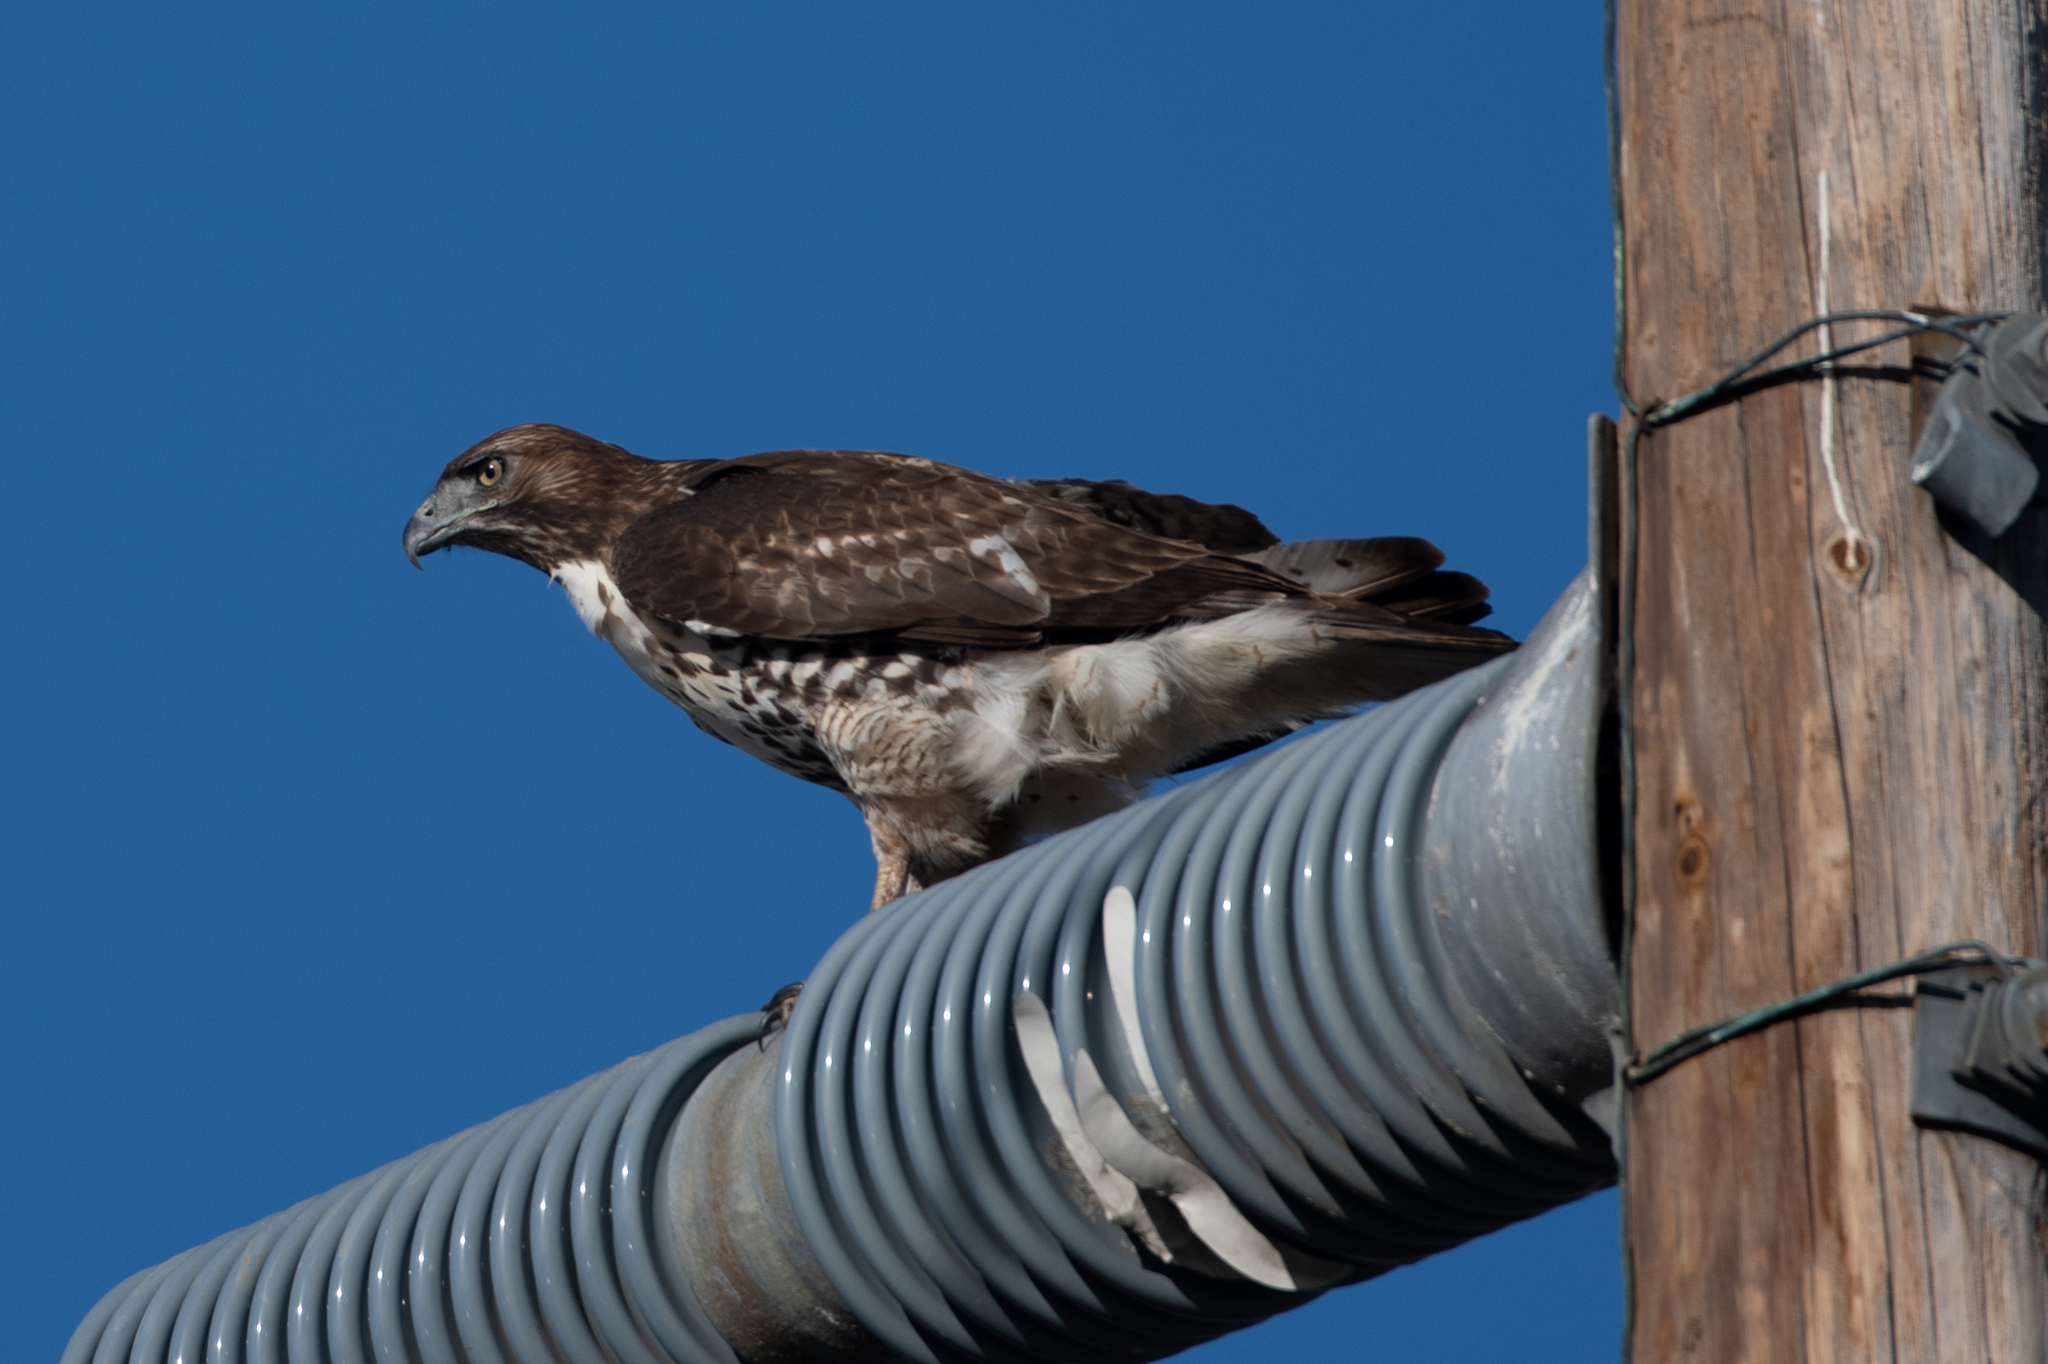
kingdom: Animalia
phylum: Chordata
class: Aves
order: Accipitriformes
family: Accipitridae
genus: Buteo
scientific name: Buteo jamaicensis
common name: Red-tailed hawk
